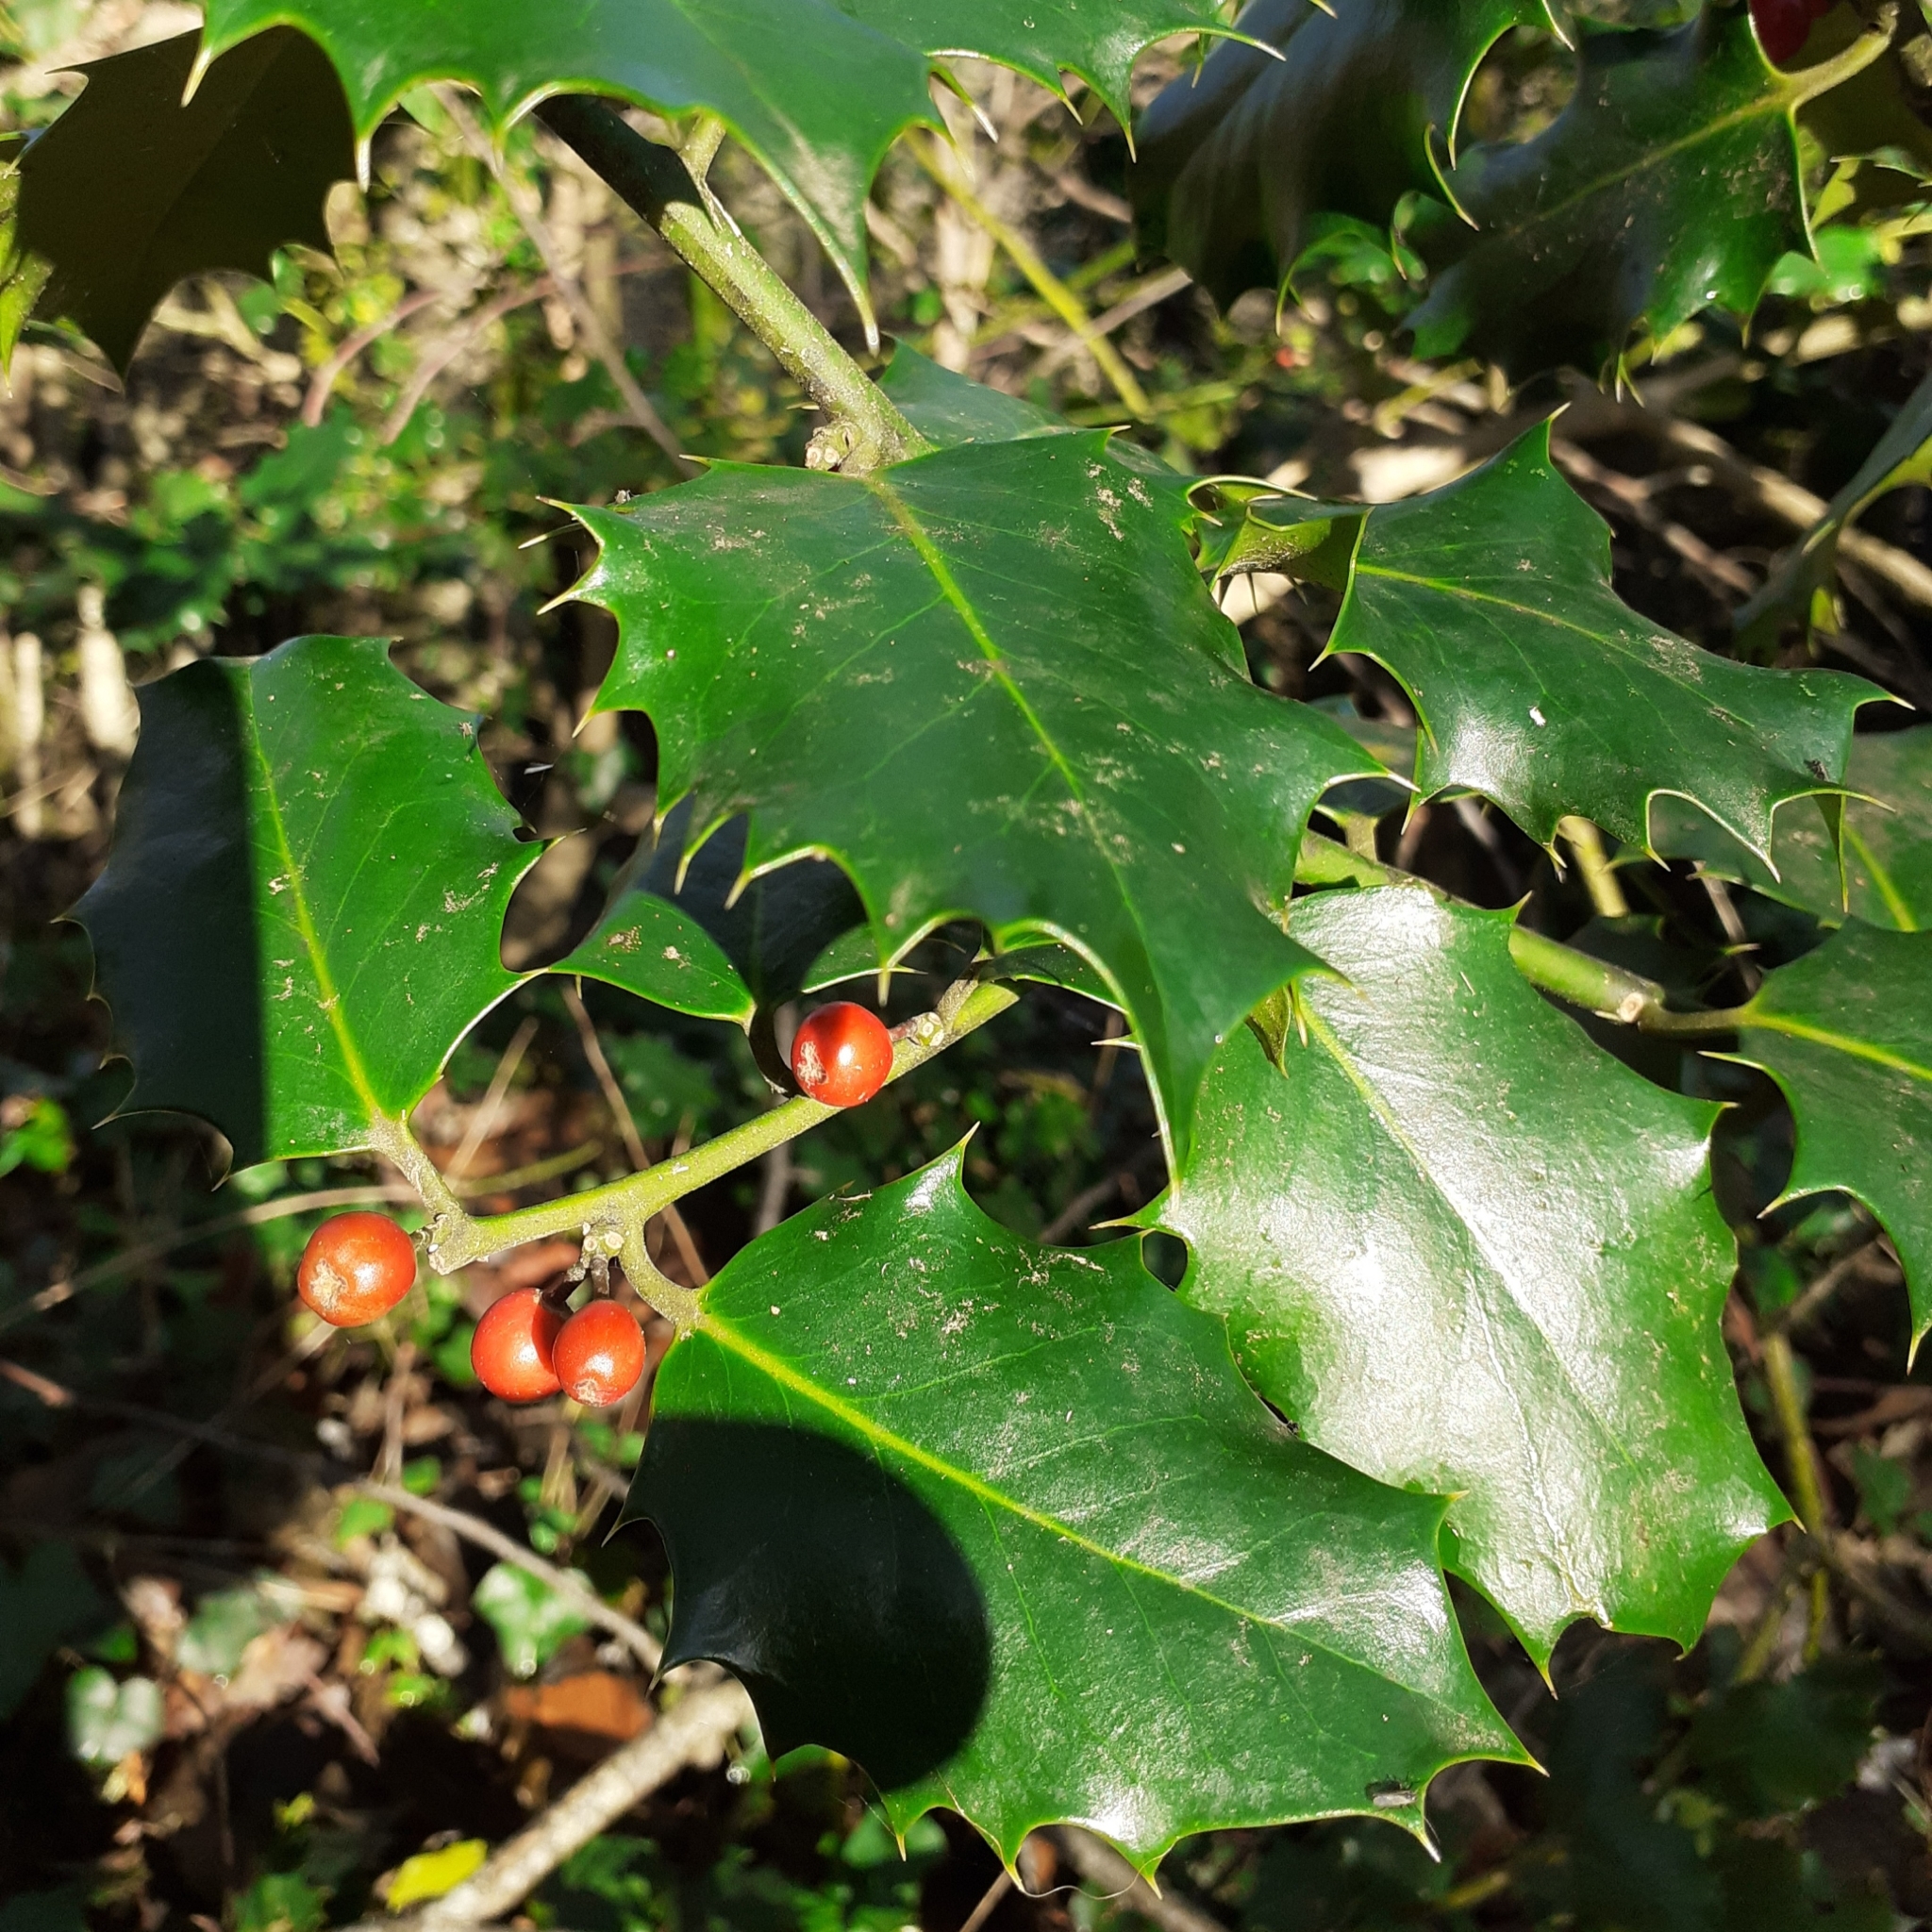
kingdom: Plantae
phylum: Tracheophyta
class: Magnoliopsida
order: Aquifoliales
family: Aquifoliaceae
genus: Ilex
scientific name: Ilex aquifolium
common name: English holly
